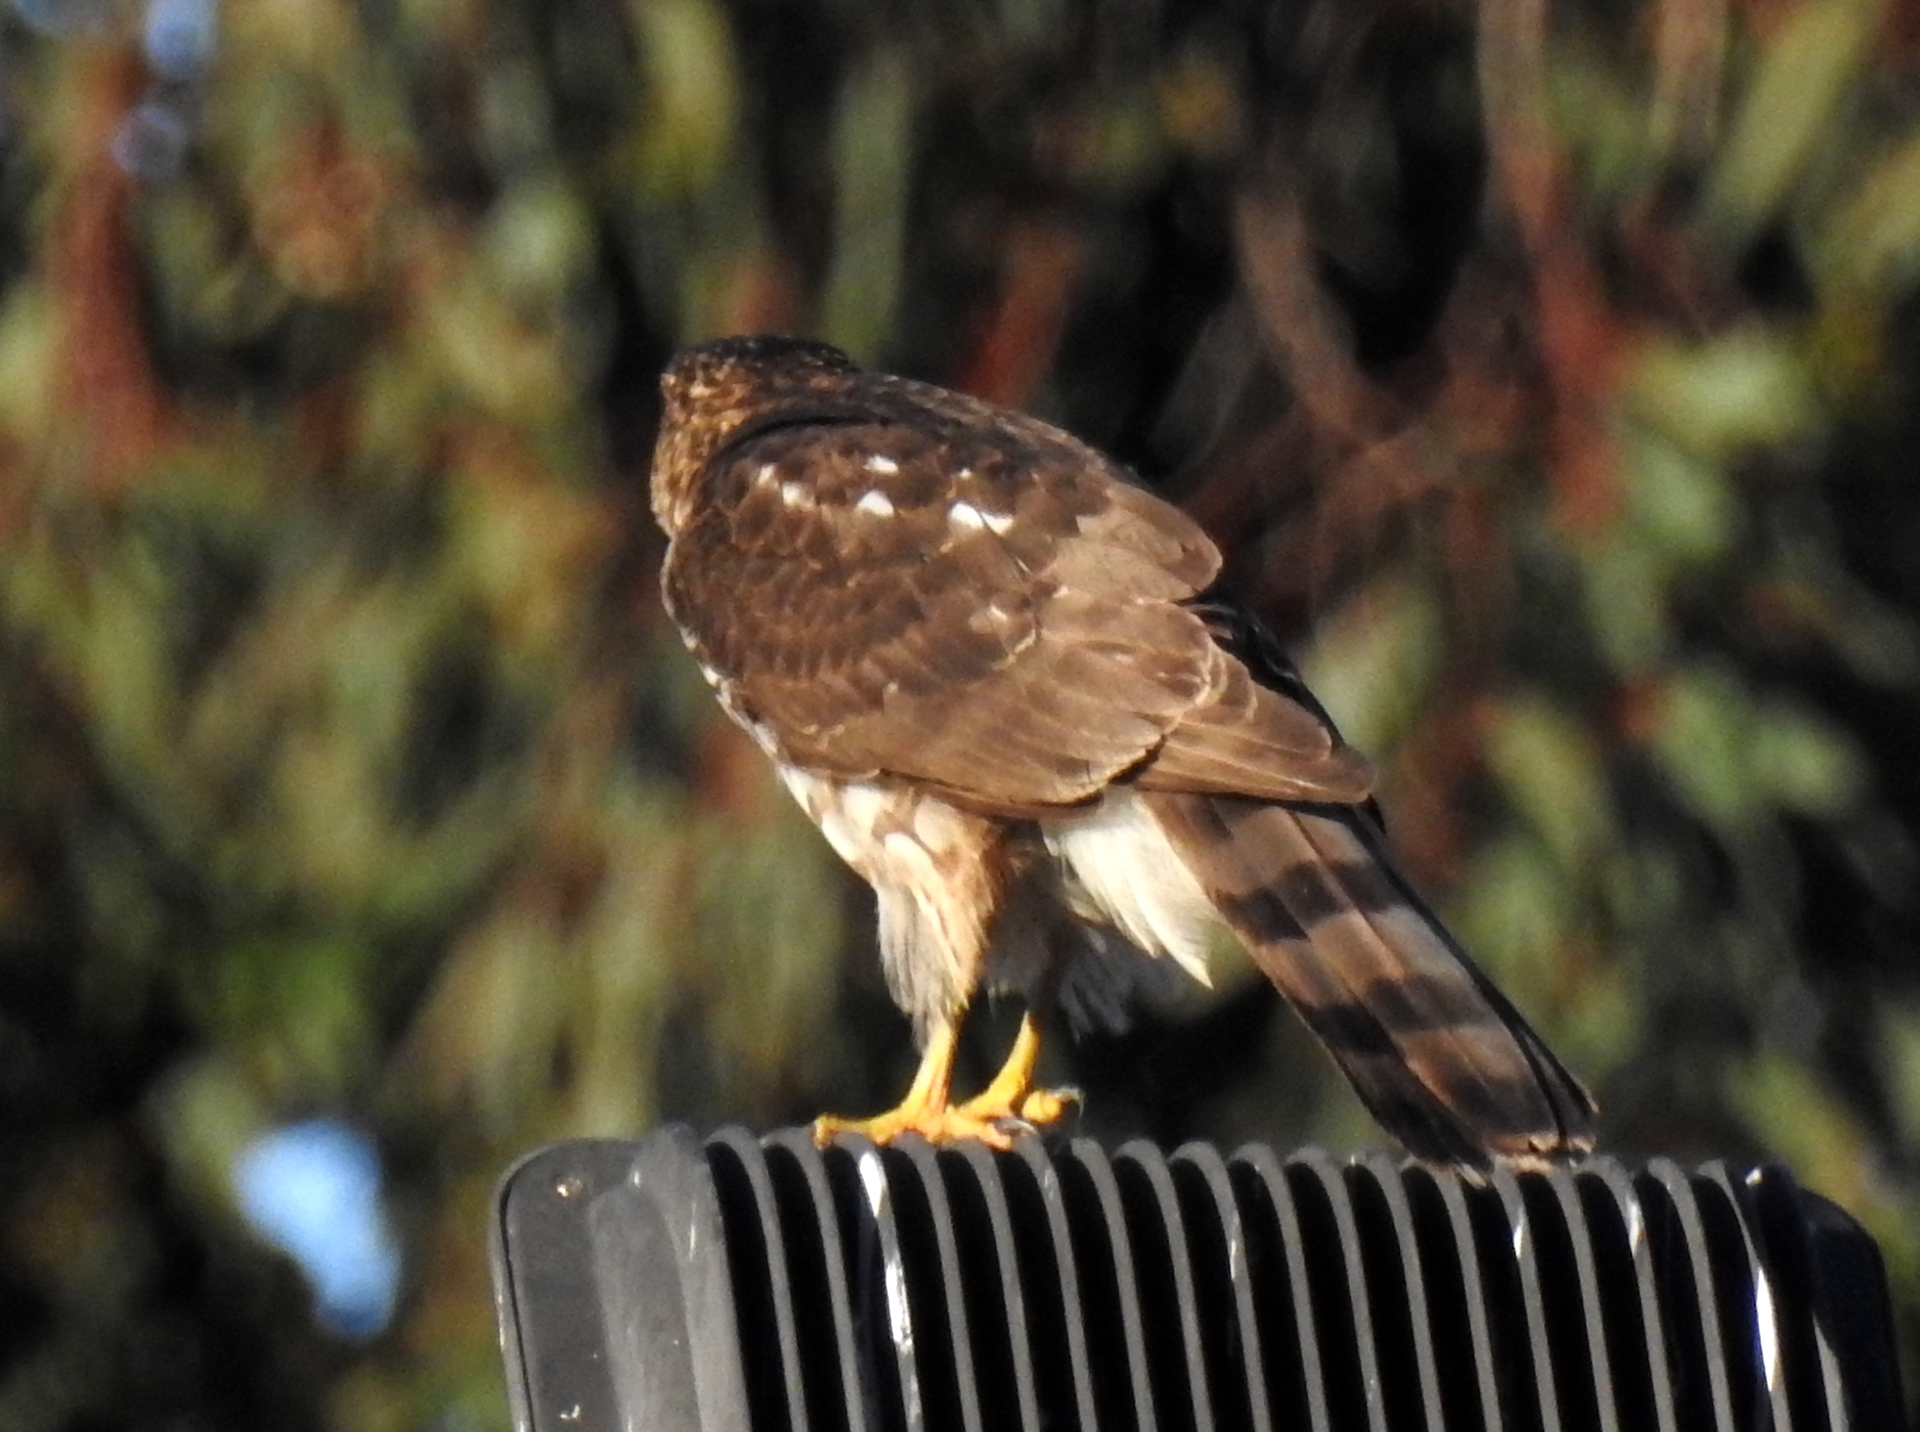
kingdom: Animalia
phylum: Chordata
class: Aves
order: Accipitriformes
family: Accipitridae
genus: Accipiter
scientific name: Accipiter cooperii
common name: Cooper's hawk
